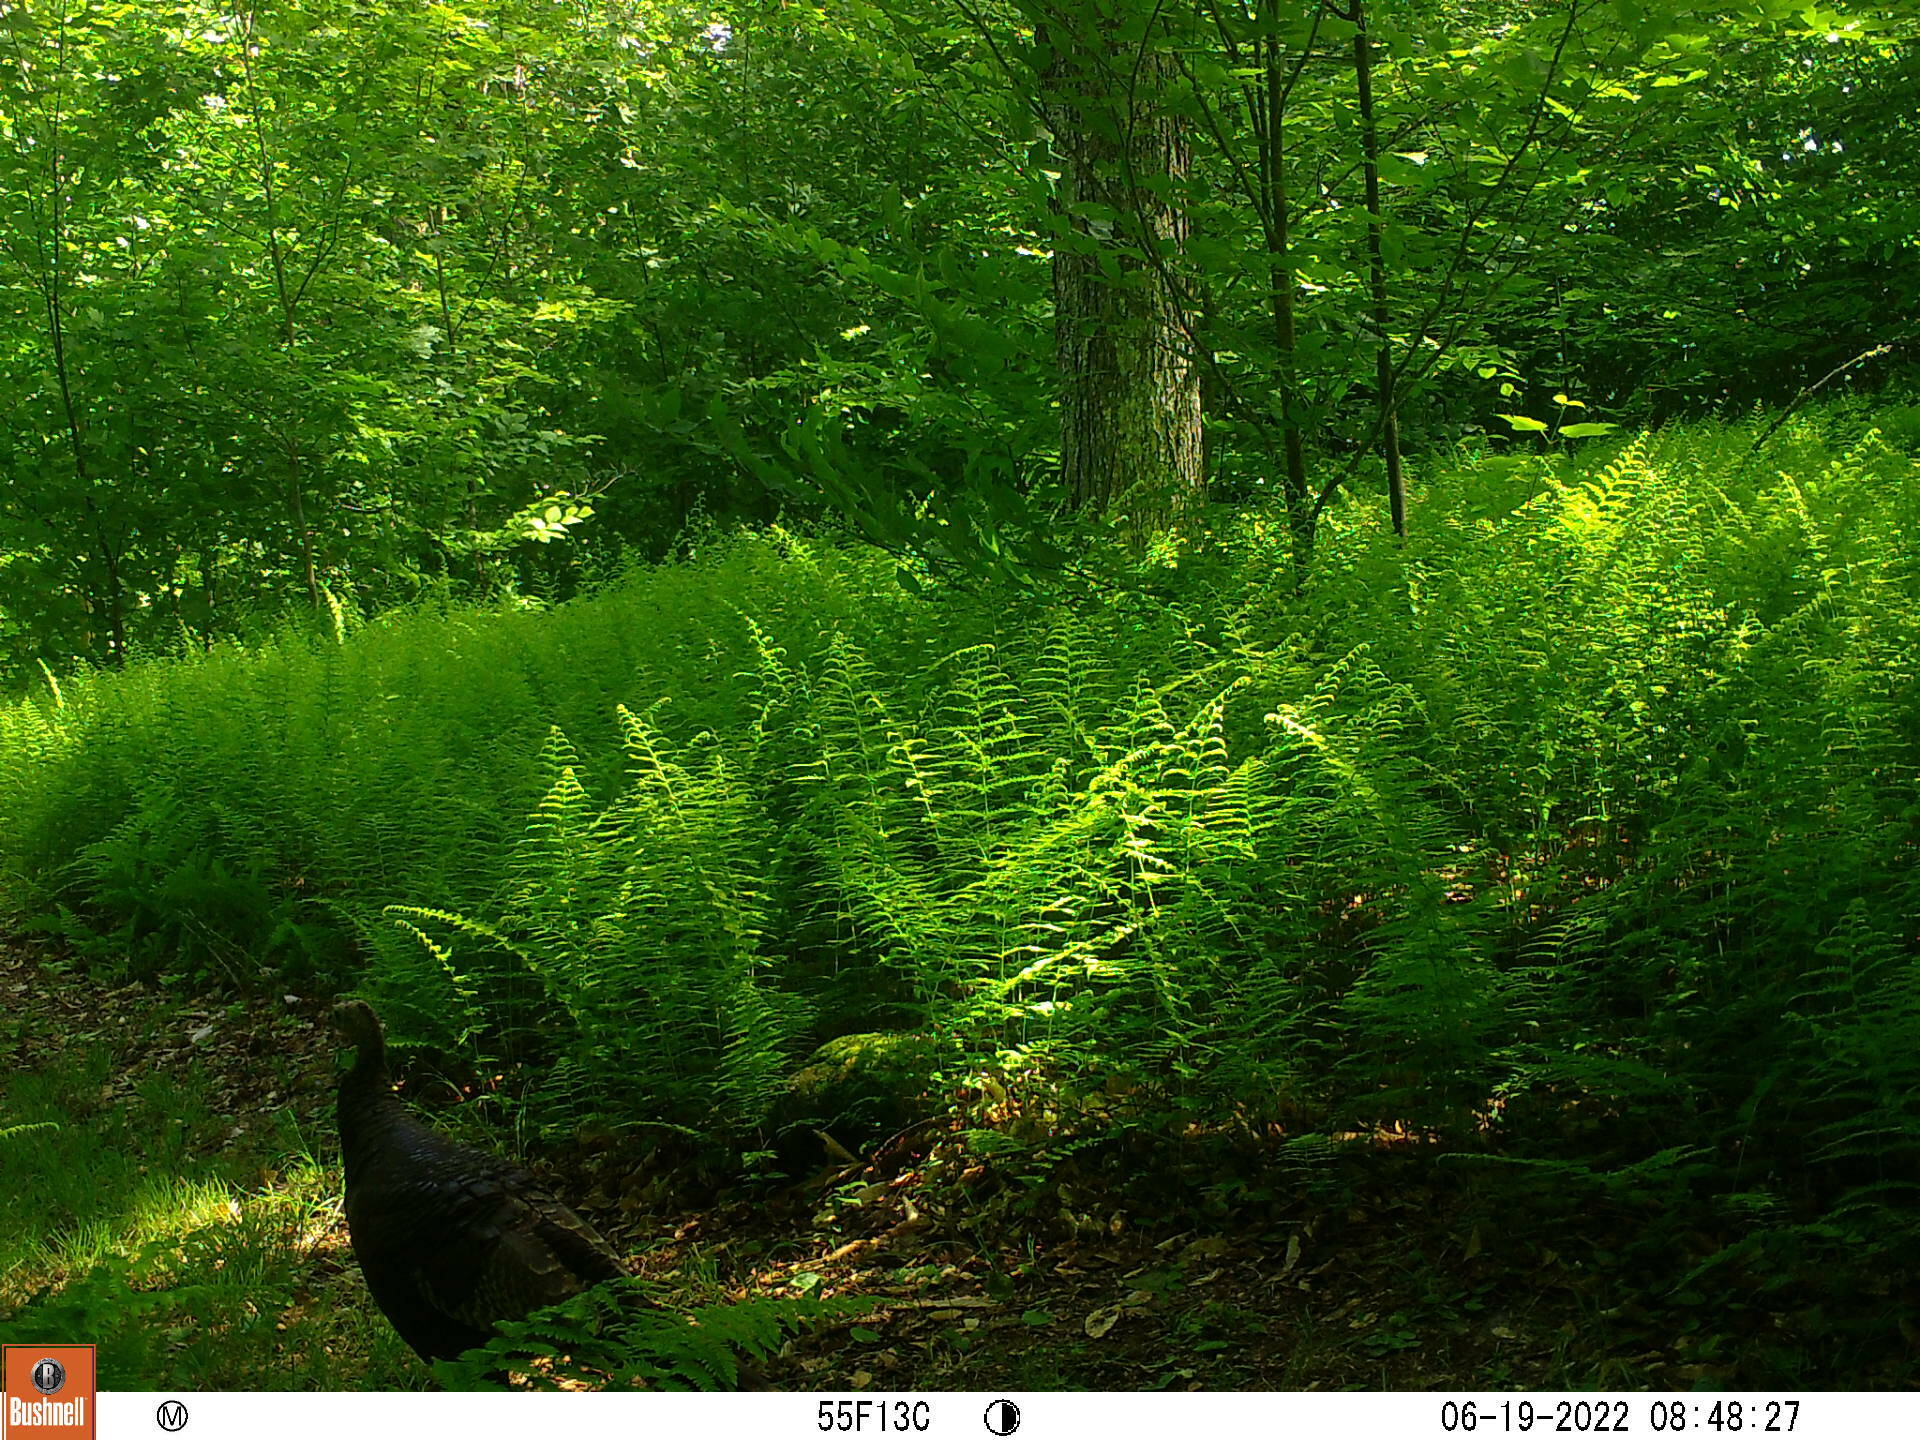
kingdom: Animalia
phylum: Chordata
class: Aves
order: Galliformes
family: Phasianidae
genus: Meleagris
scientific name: Meleagris gallopavo
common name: Wild turkey
